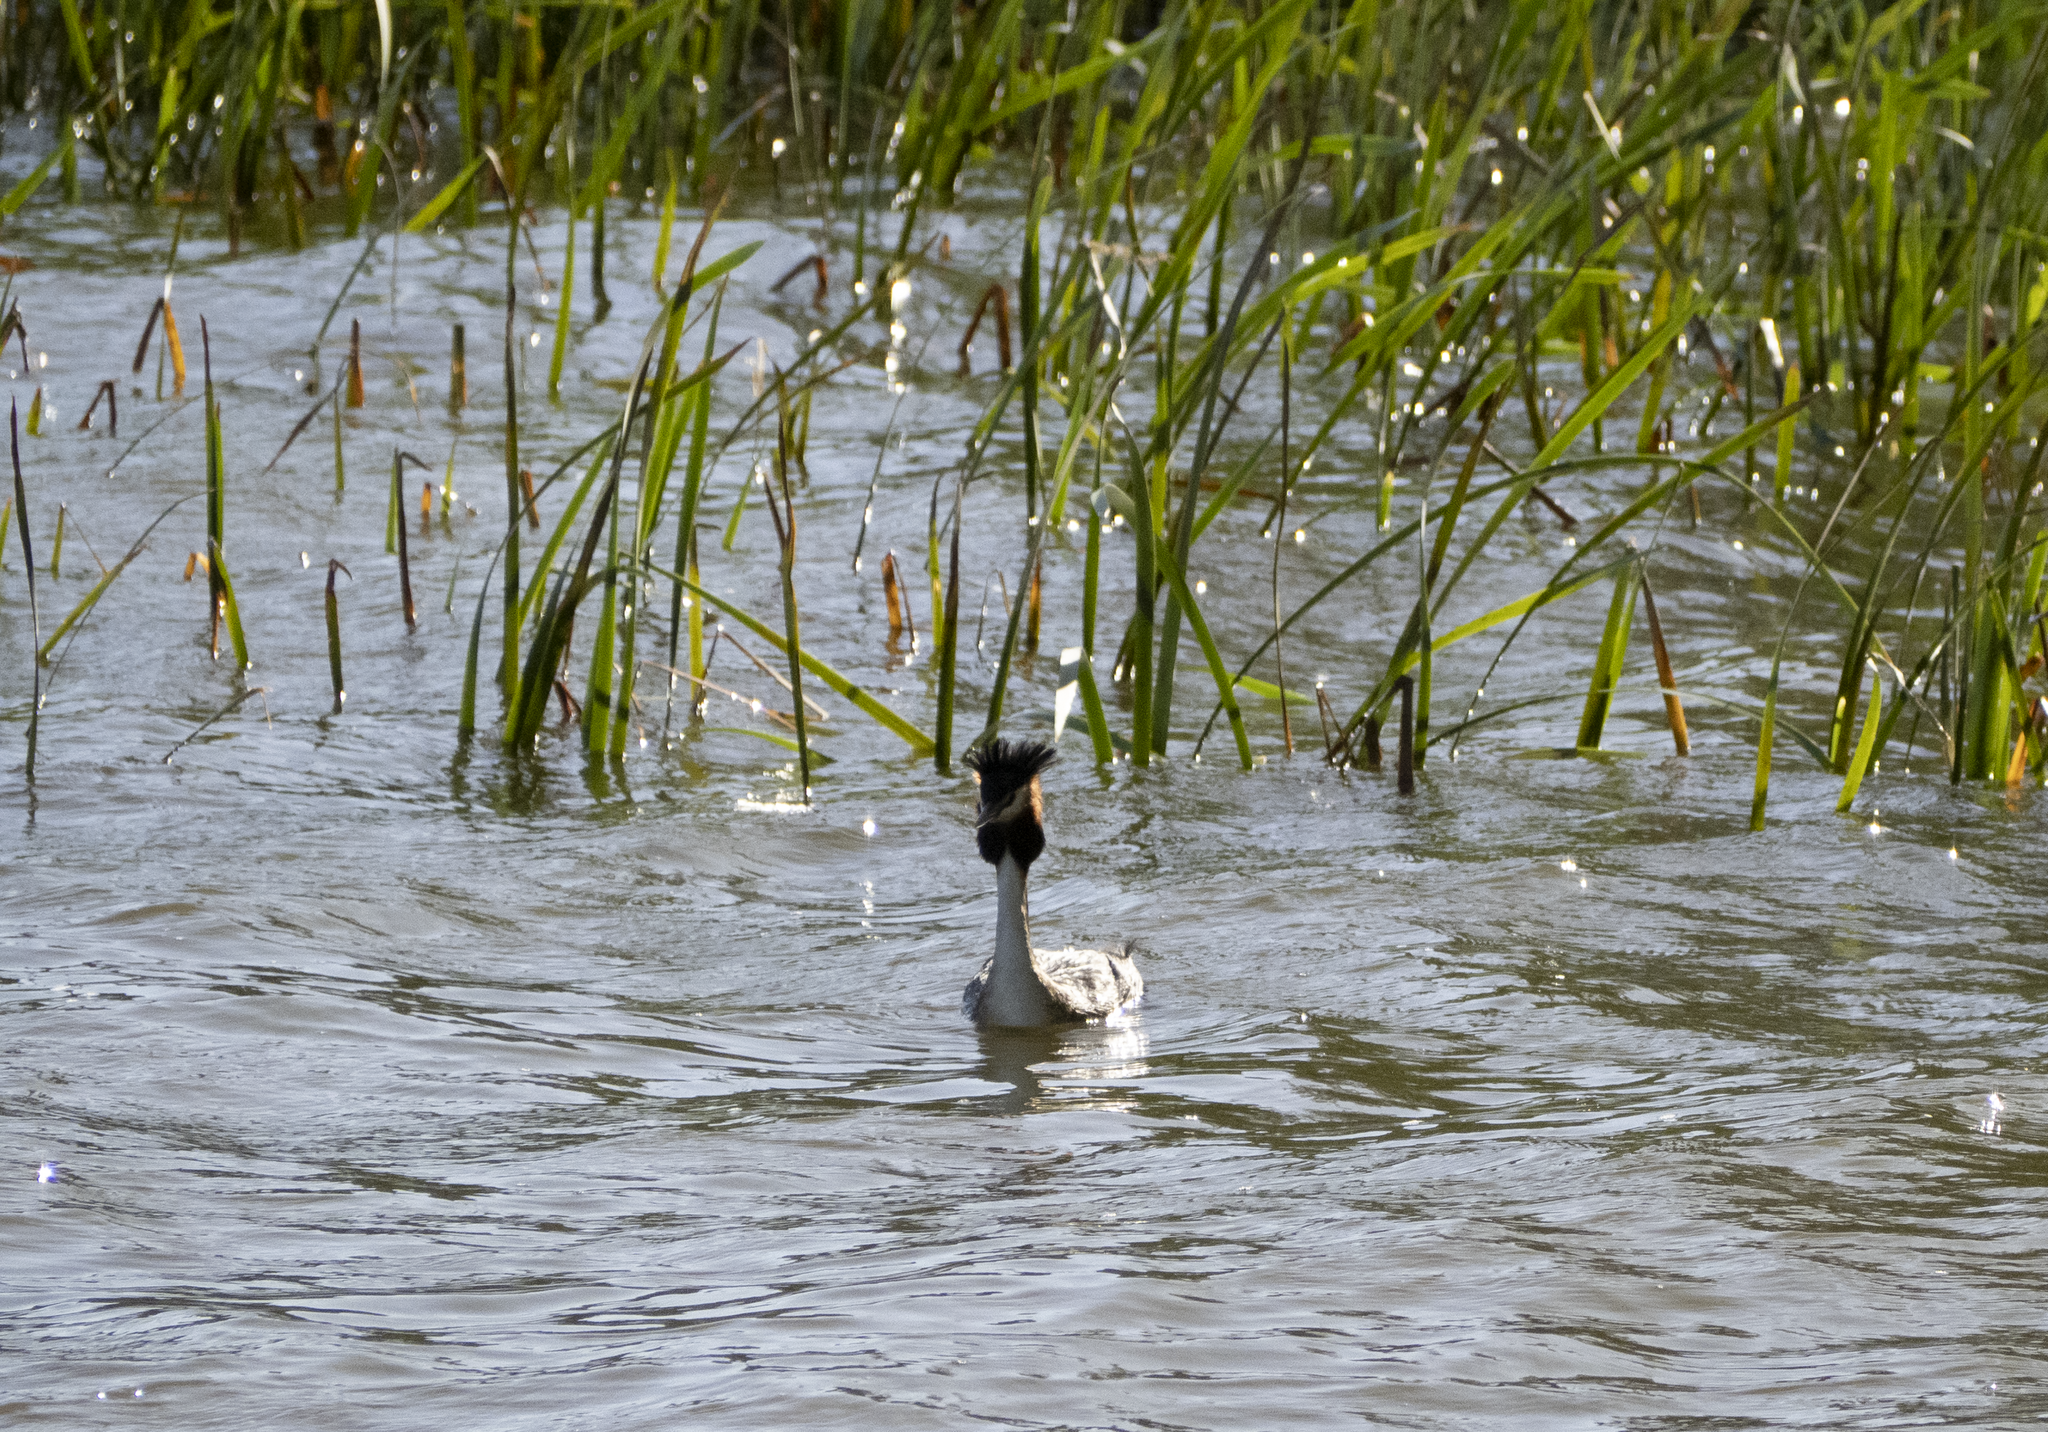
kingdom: Animalia
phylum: Chordata
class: Aves
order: Podicipediformes
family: Podicipedidae
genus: Podiceps
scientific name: Podiceps cristatus
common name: Great crested grebe
